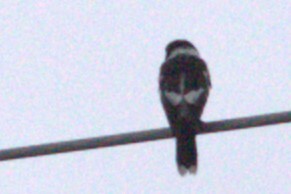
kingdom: Animalia
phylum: Chordata
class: Aves
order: Passeriformes
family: Cracticidae
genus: Cracticus
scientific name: Cracticus nigrogularis
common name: Pied butcherbird
